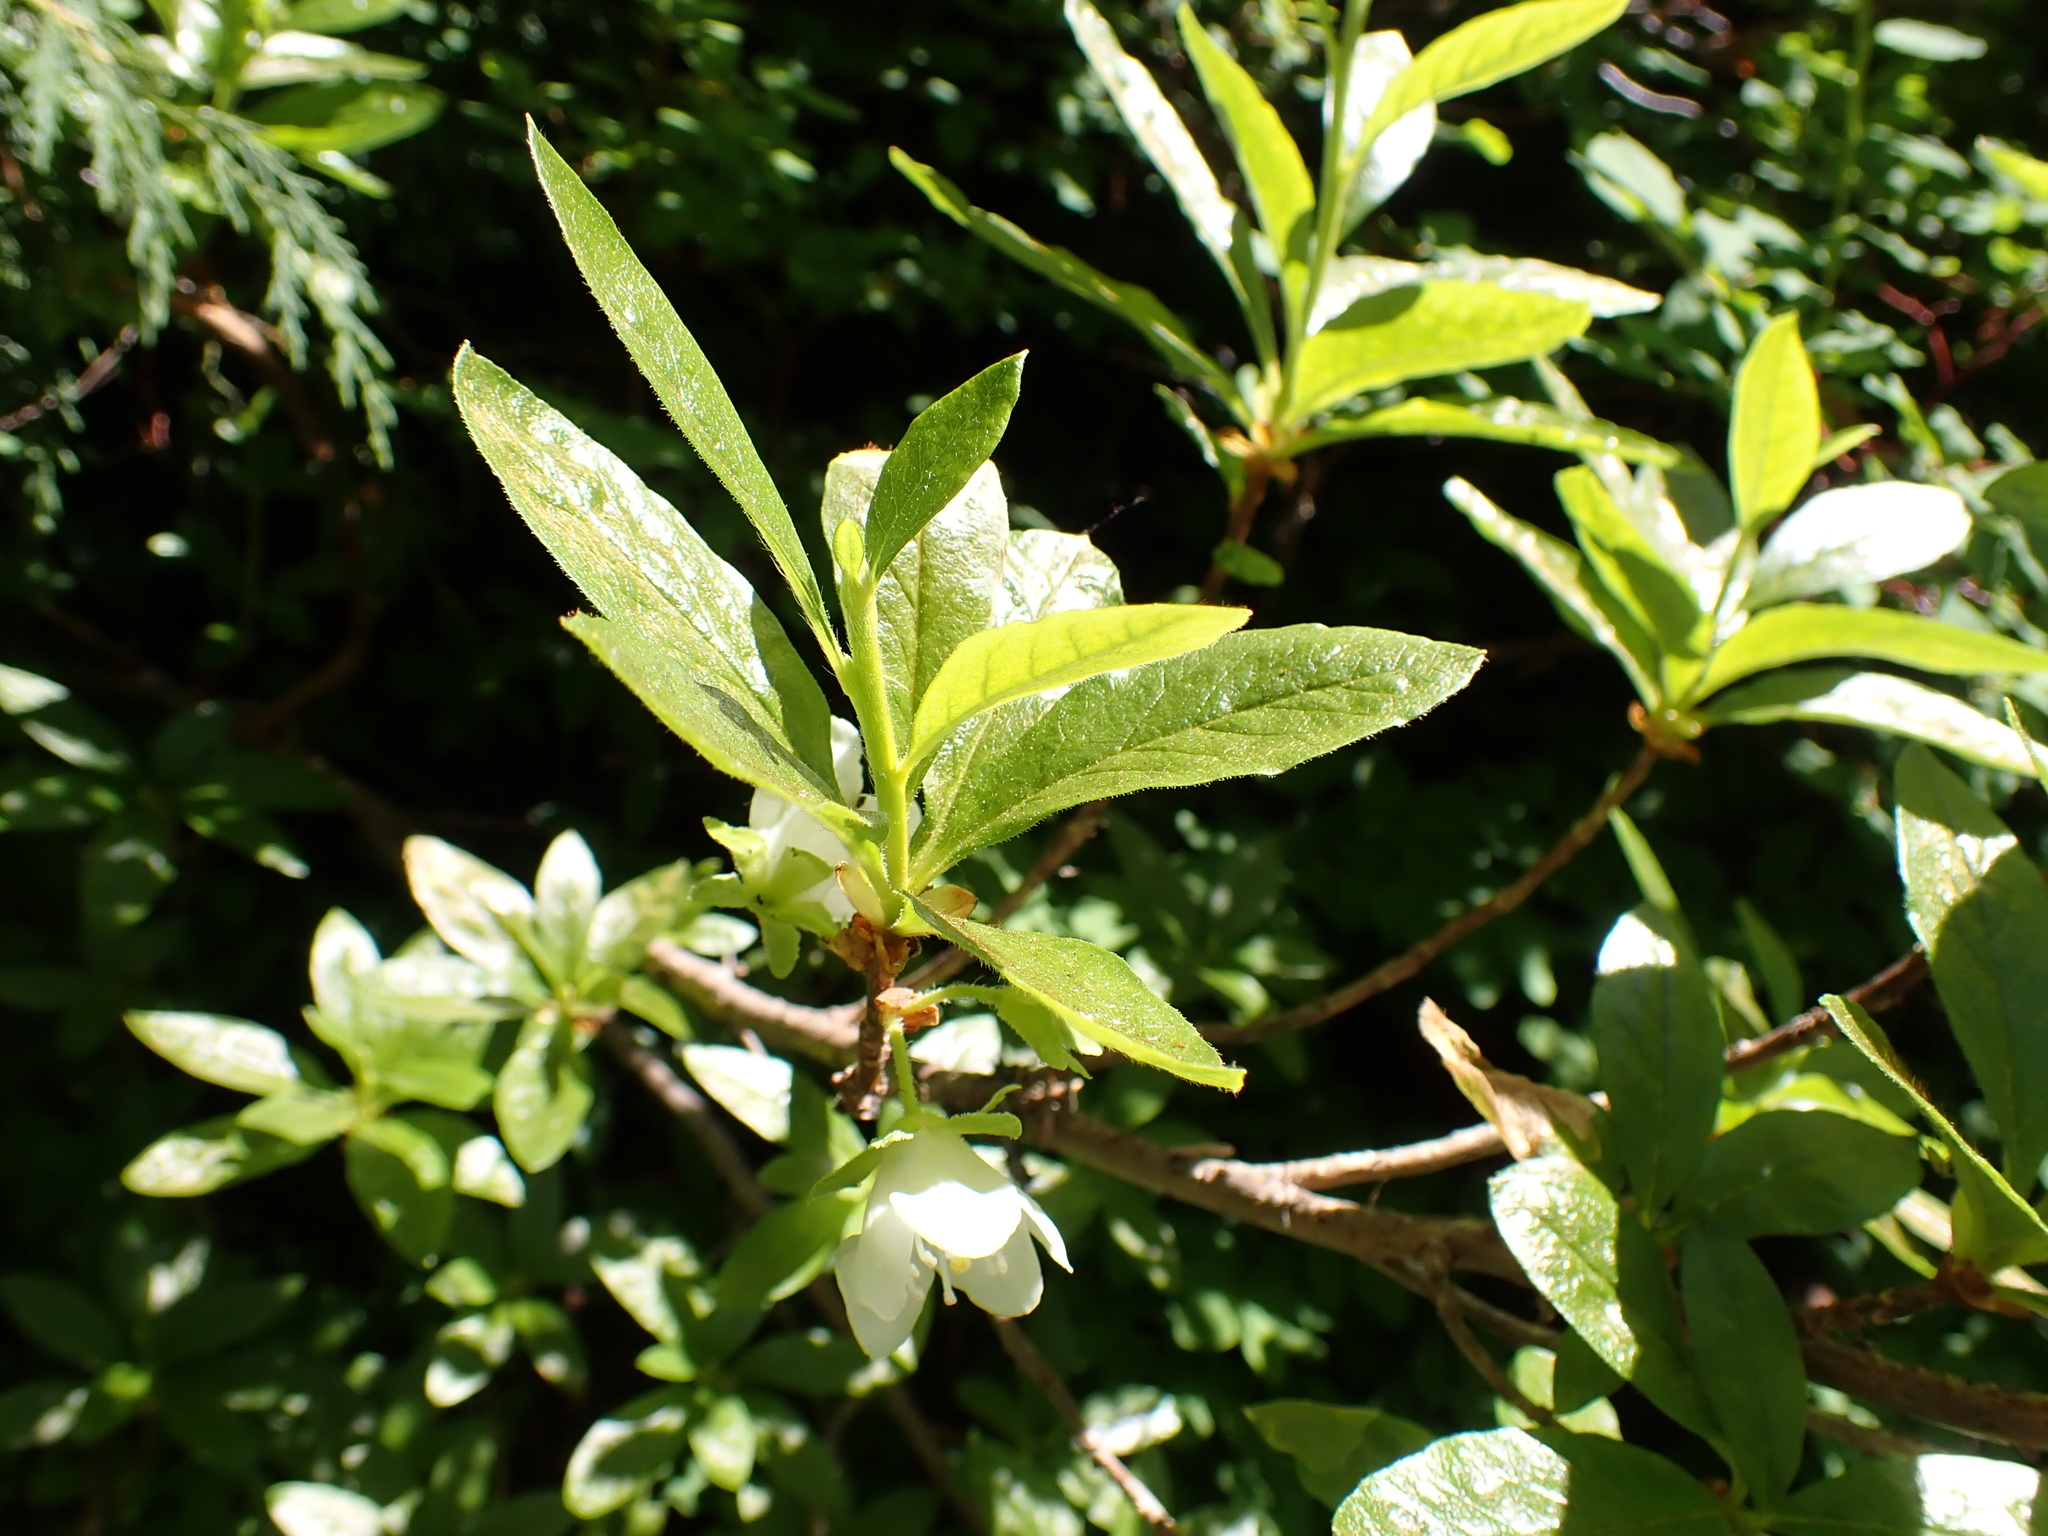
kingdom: Plantae
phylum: Tracheophyta
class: Magnoliopsida
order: Ericales
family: Ericaceae
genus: Rhododendron
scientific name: Rhododendron albiflorum
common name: White rhododendron
